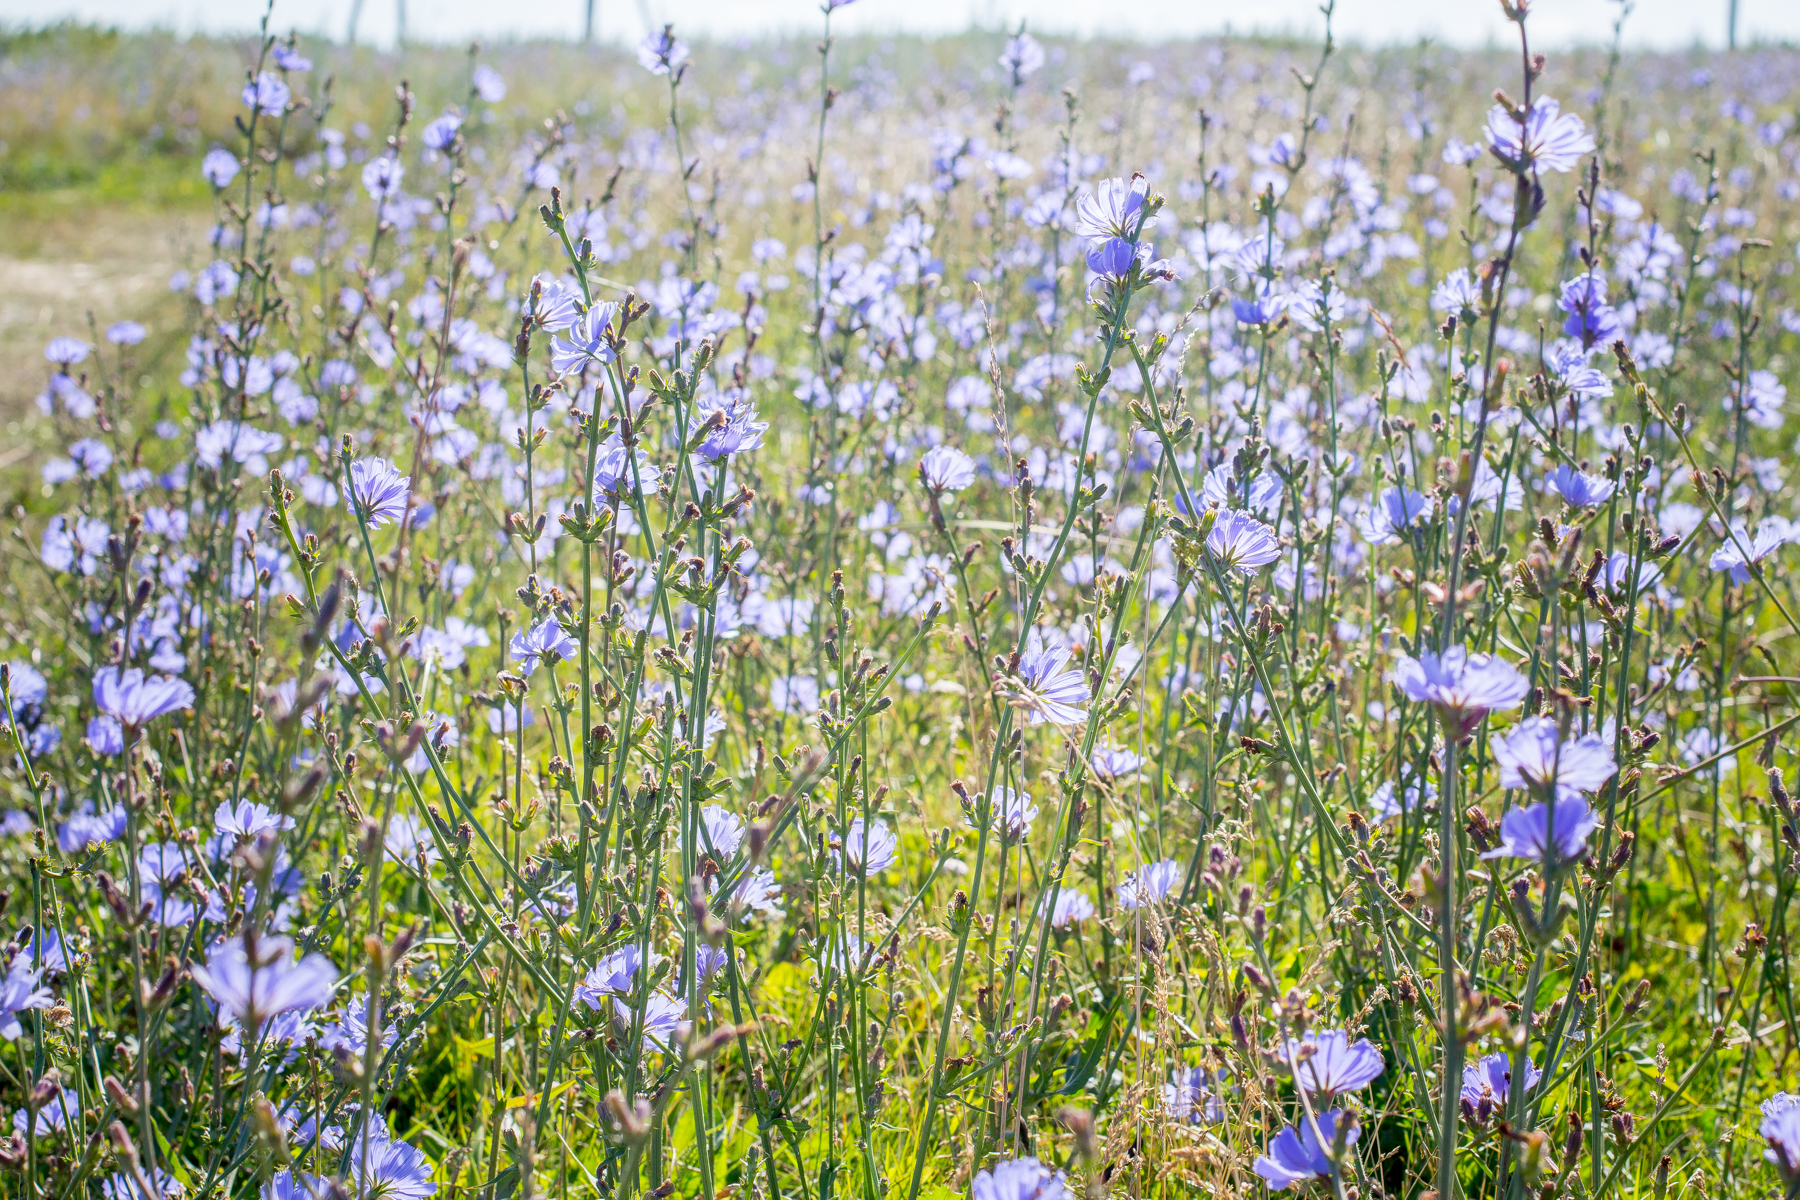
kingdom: Plantae
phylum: Tracheophyta
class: Magnoliopsida
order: Asterales
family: Asteraceae
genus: Cichorium
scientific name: Cichorium intybus
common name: Chicory
